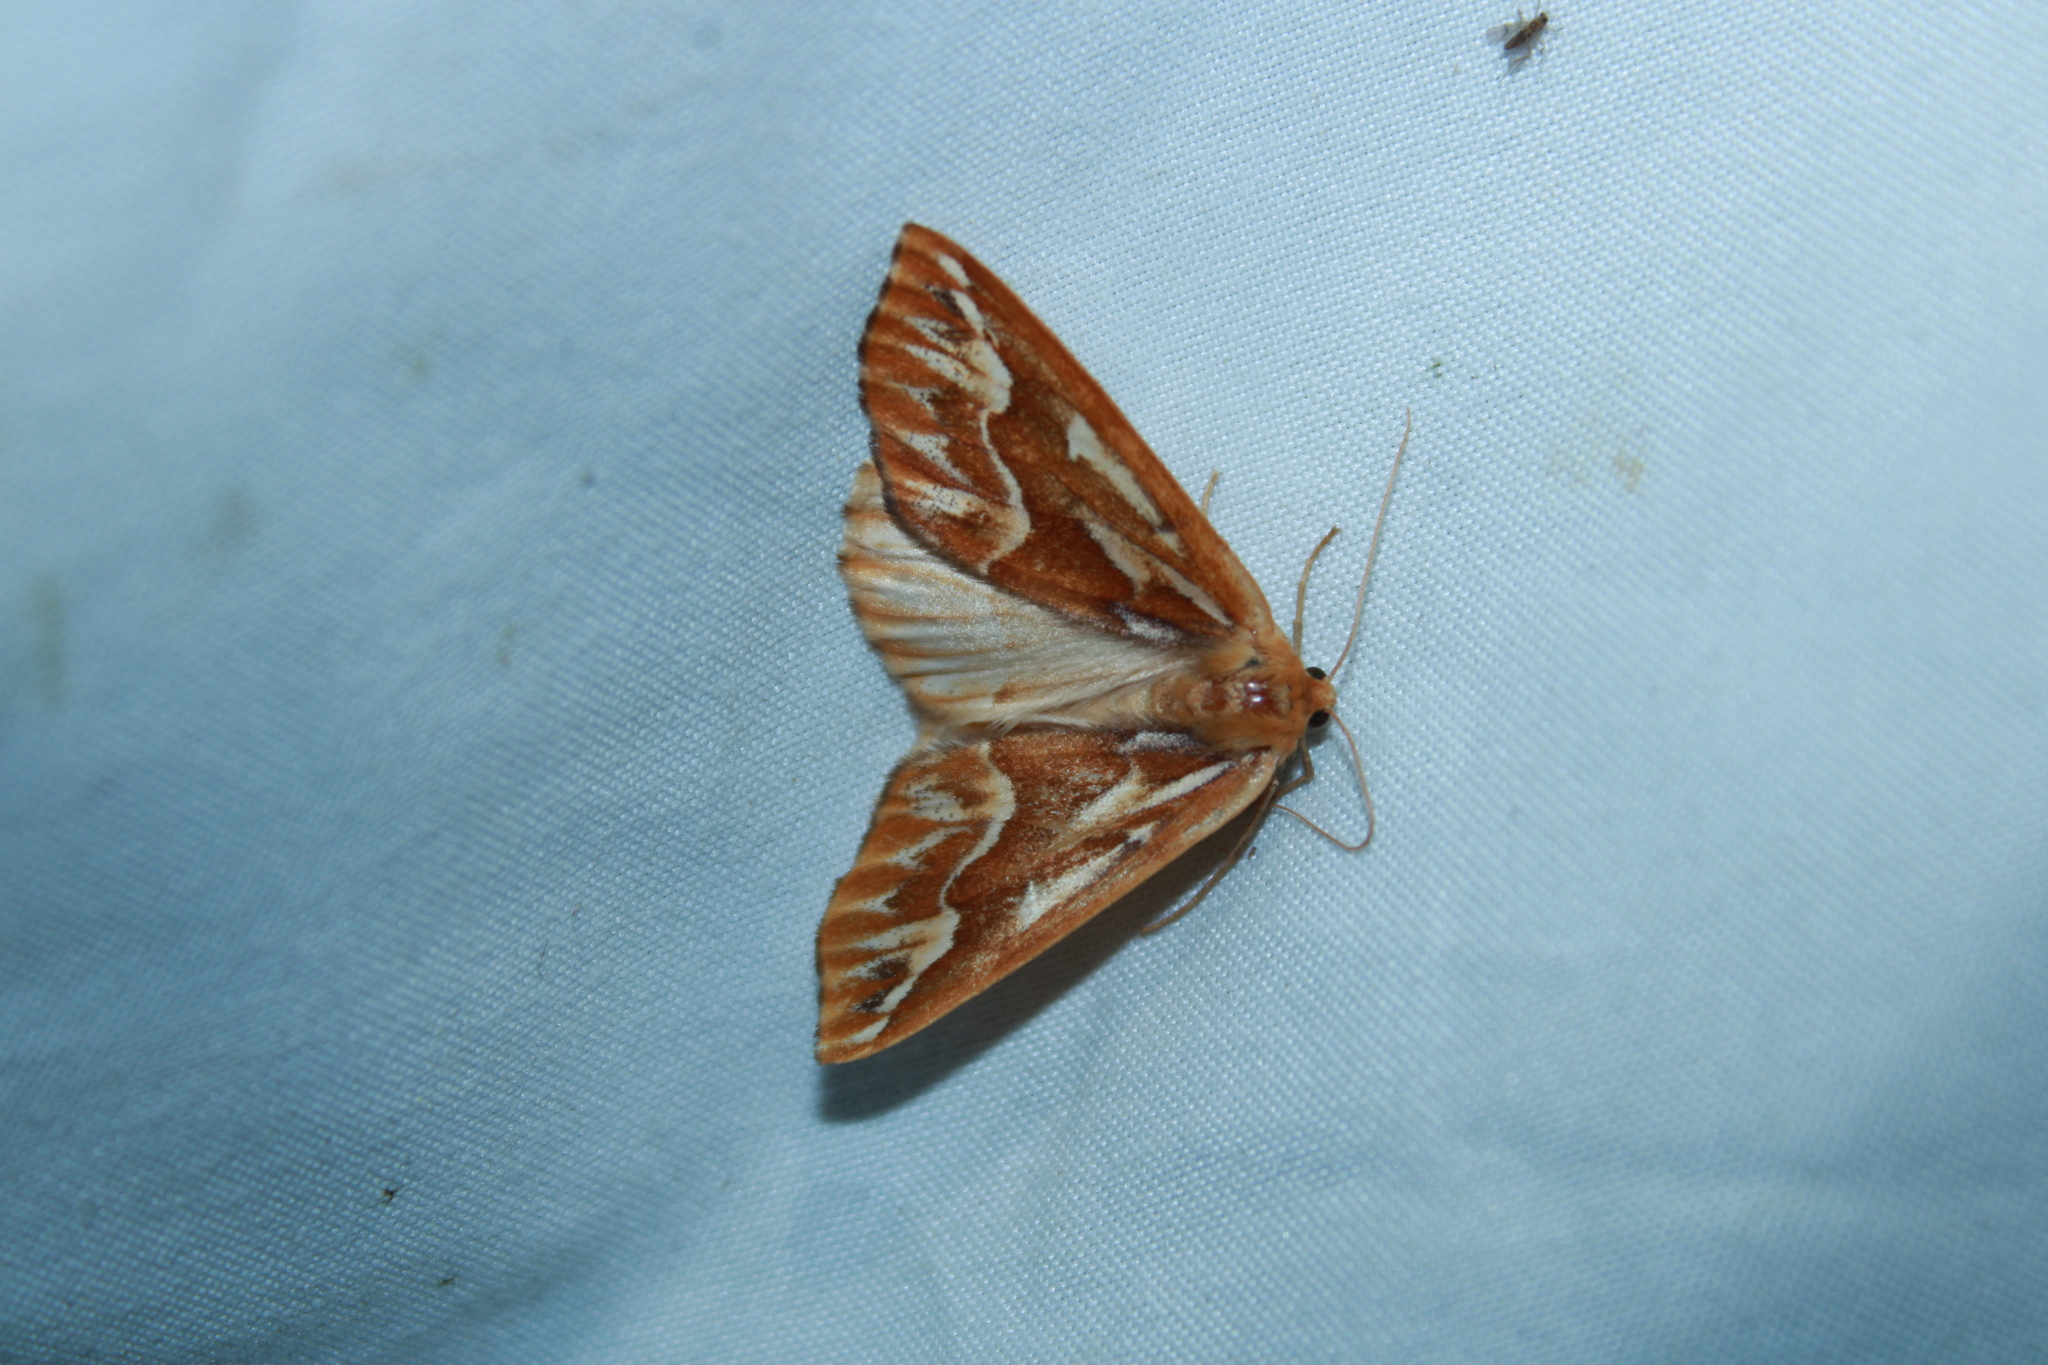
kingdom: Animalia
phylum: Arthropoda
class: Insecta
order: Lepidoptera
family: Geometridae
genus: Caripeta
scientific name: Caripeta piniata
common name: Northern pine looper moth
